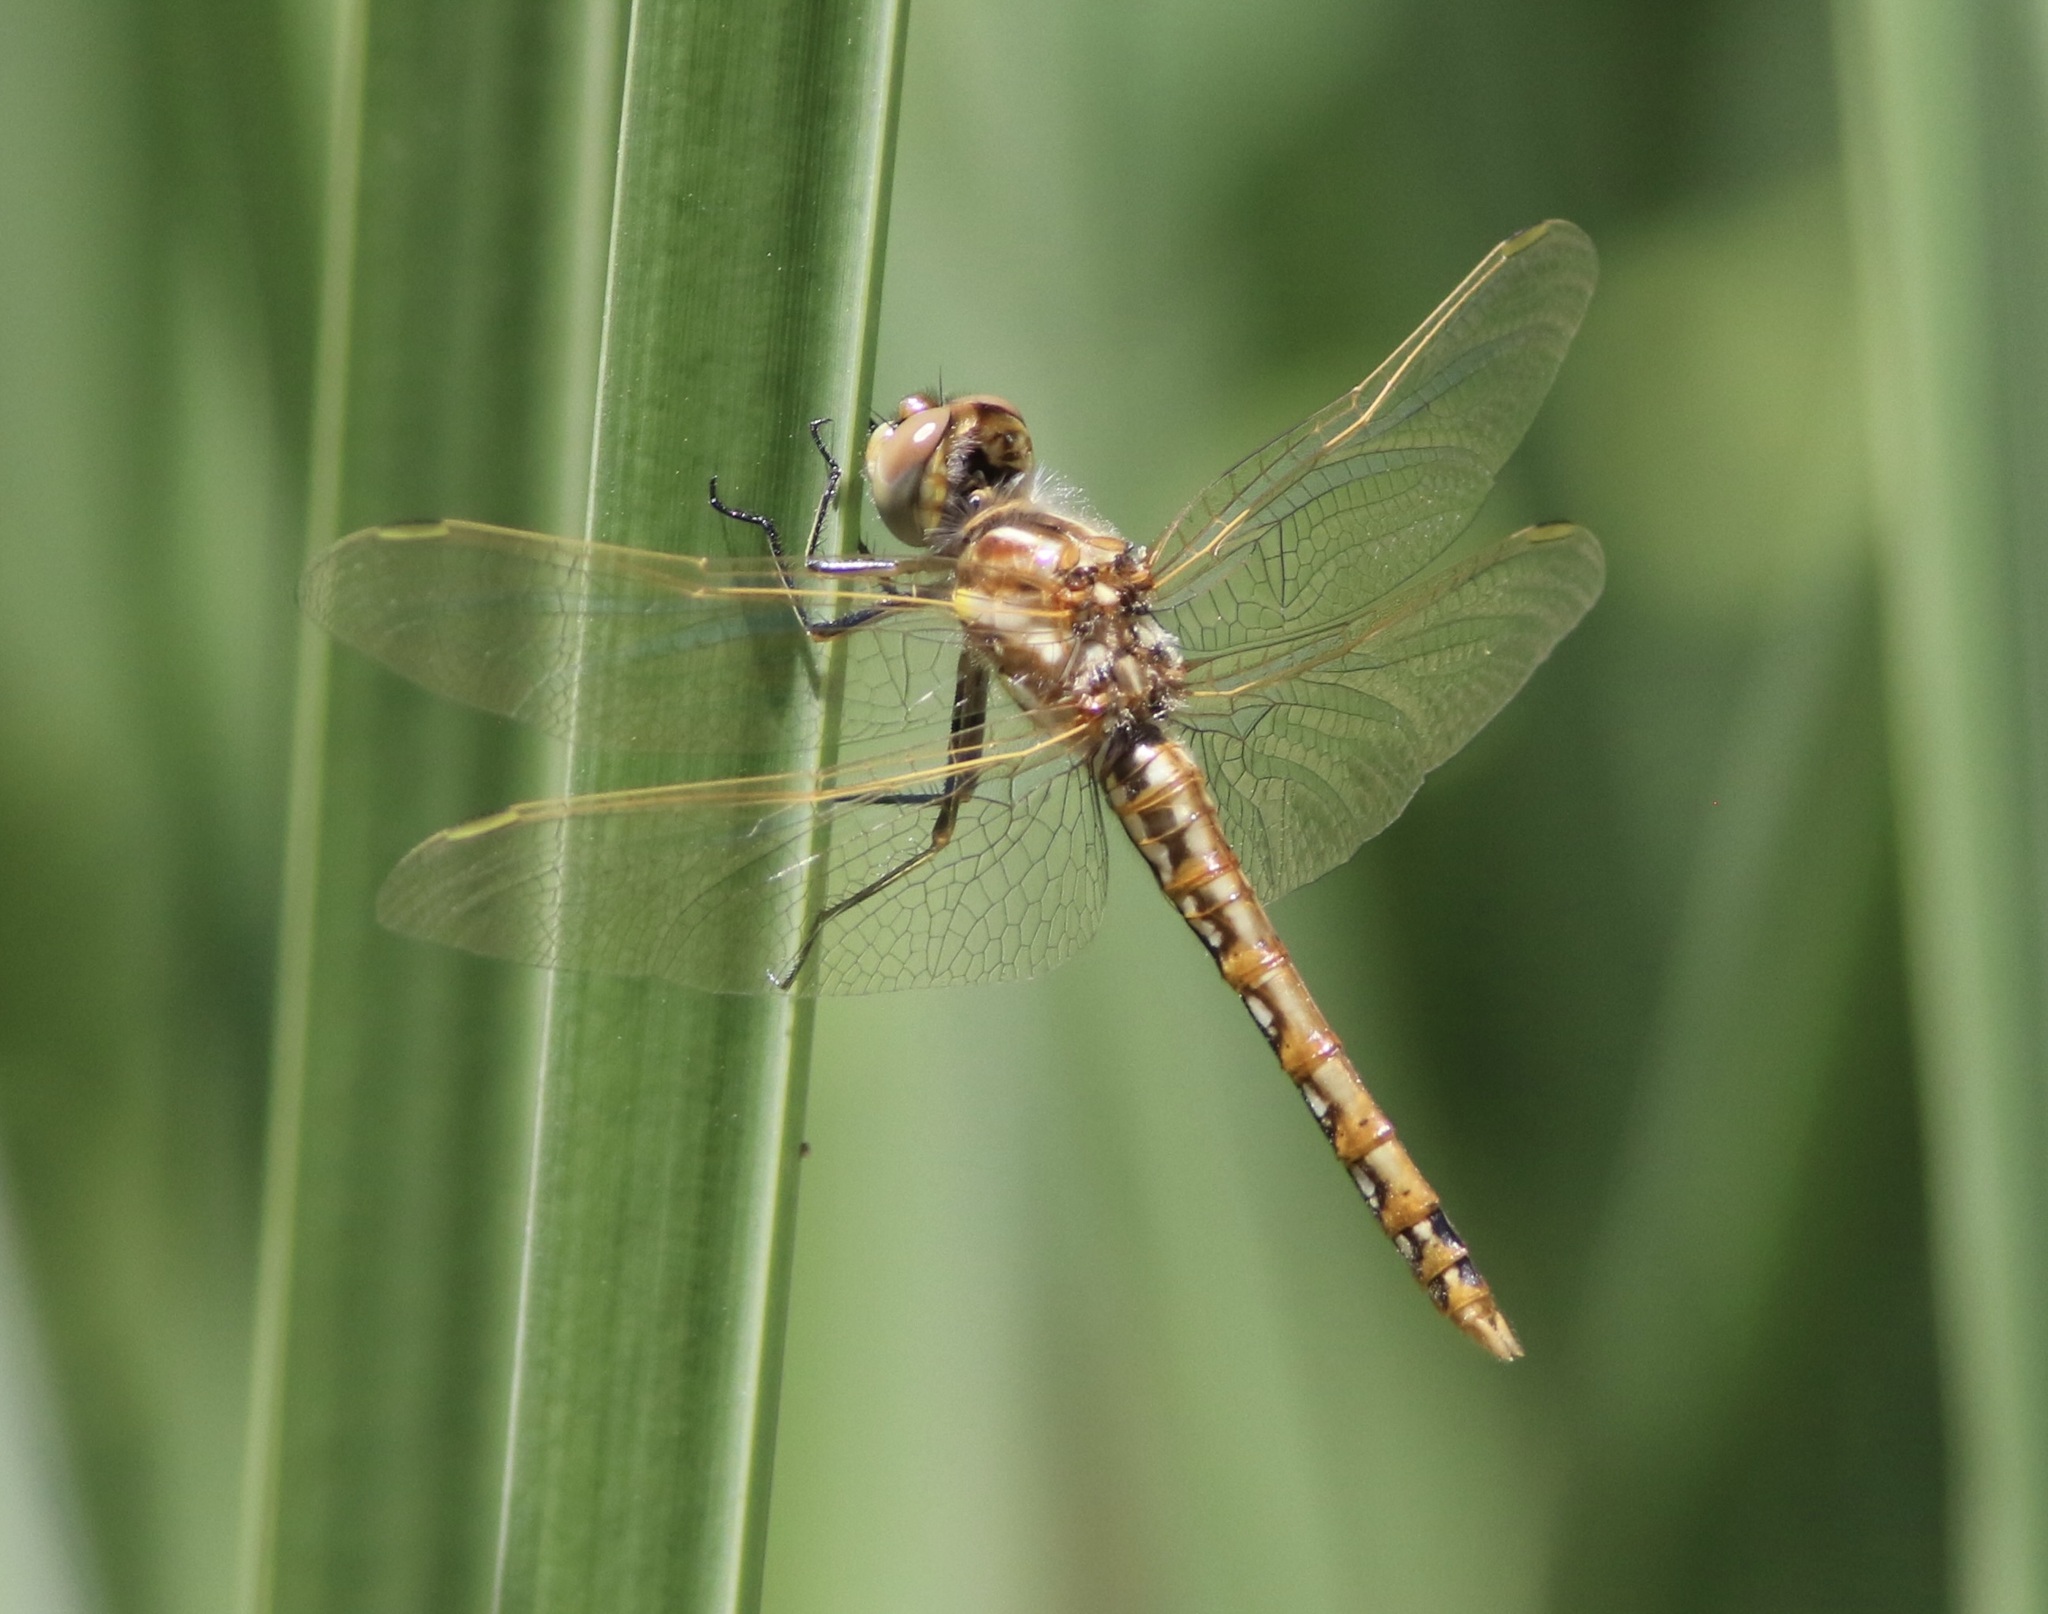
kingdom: Animalia
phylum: Arthropoda
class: Insecta
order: Odonata
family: Libellulidae
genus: Sympetrum
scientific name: Sympetrum corruptum
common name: Variegated meadowhawk
